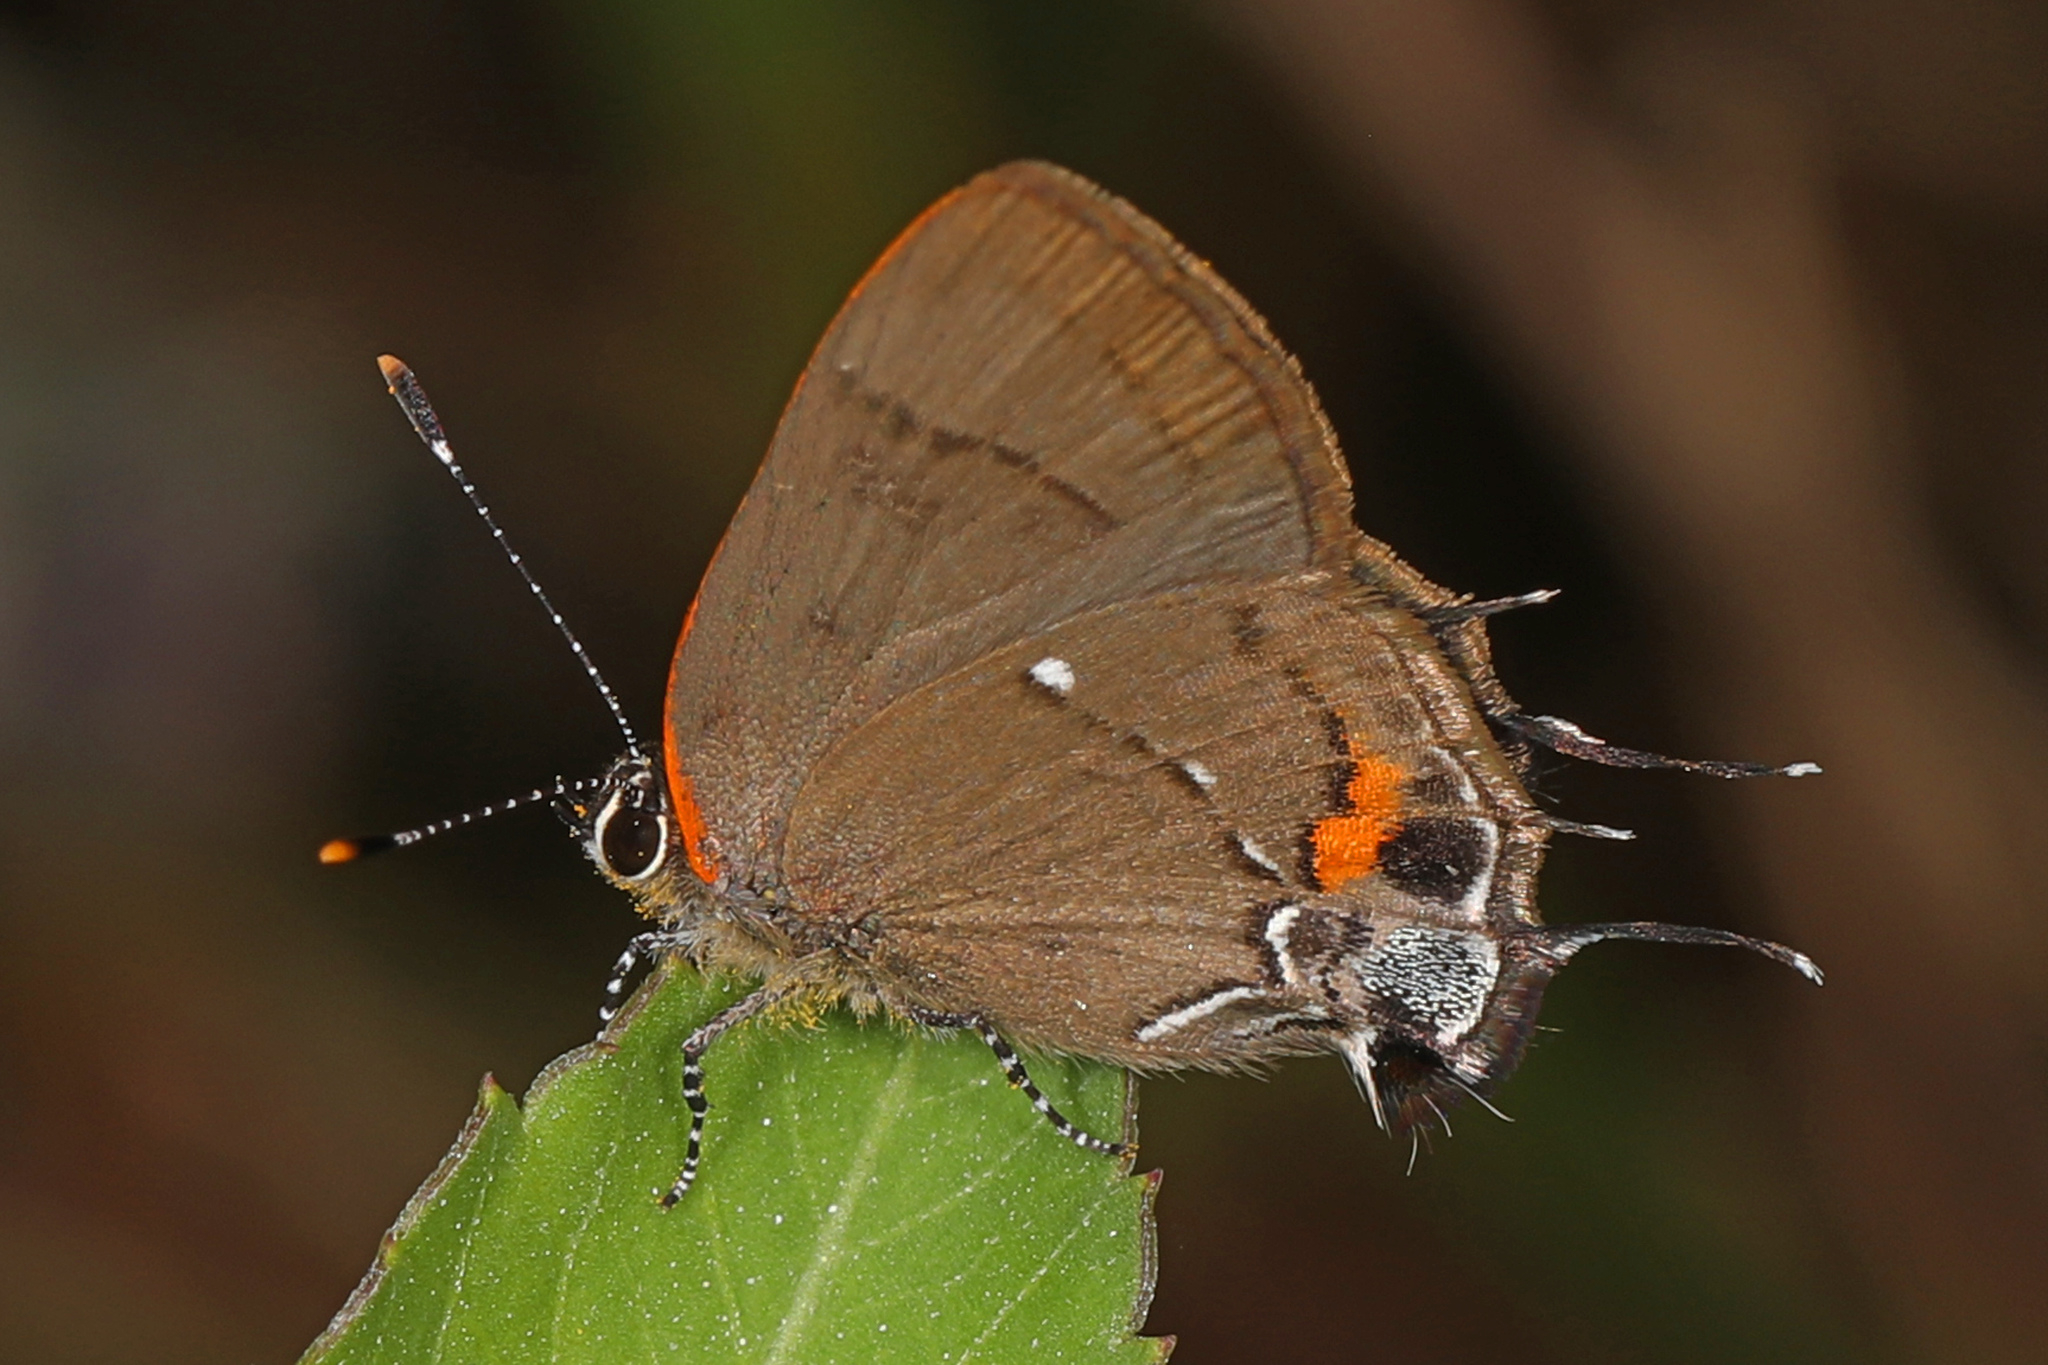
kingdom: Animalia
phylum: Arthropoda
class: Insecta
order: Lepidoptera
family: Lycaenidae
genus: Thecla
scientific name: Thecla angelia
